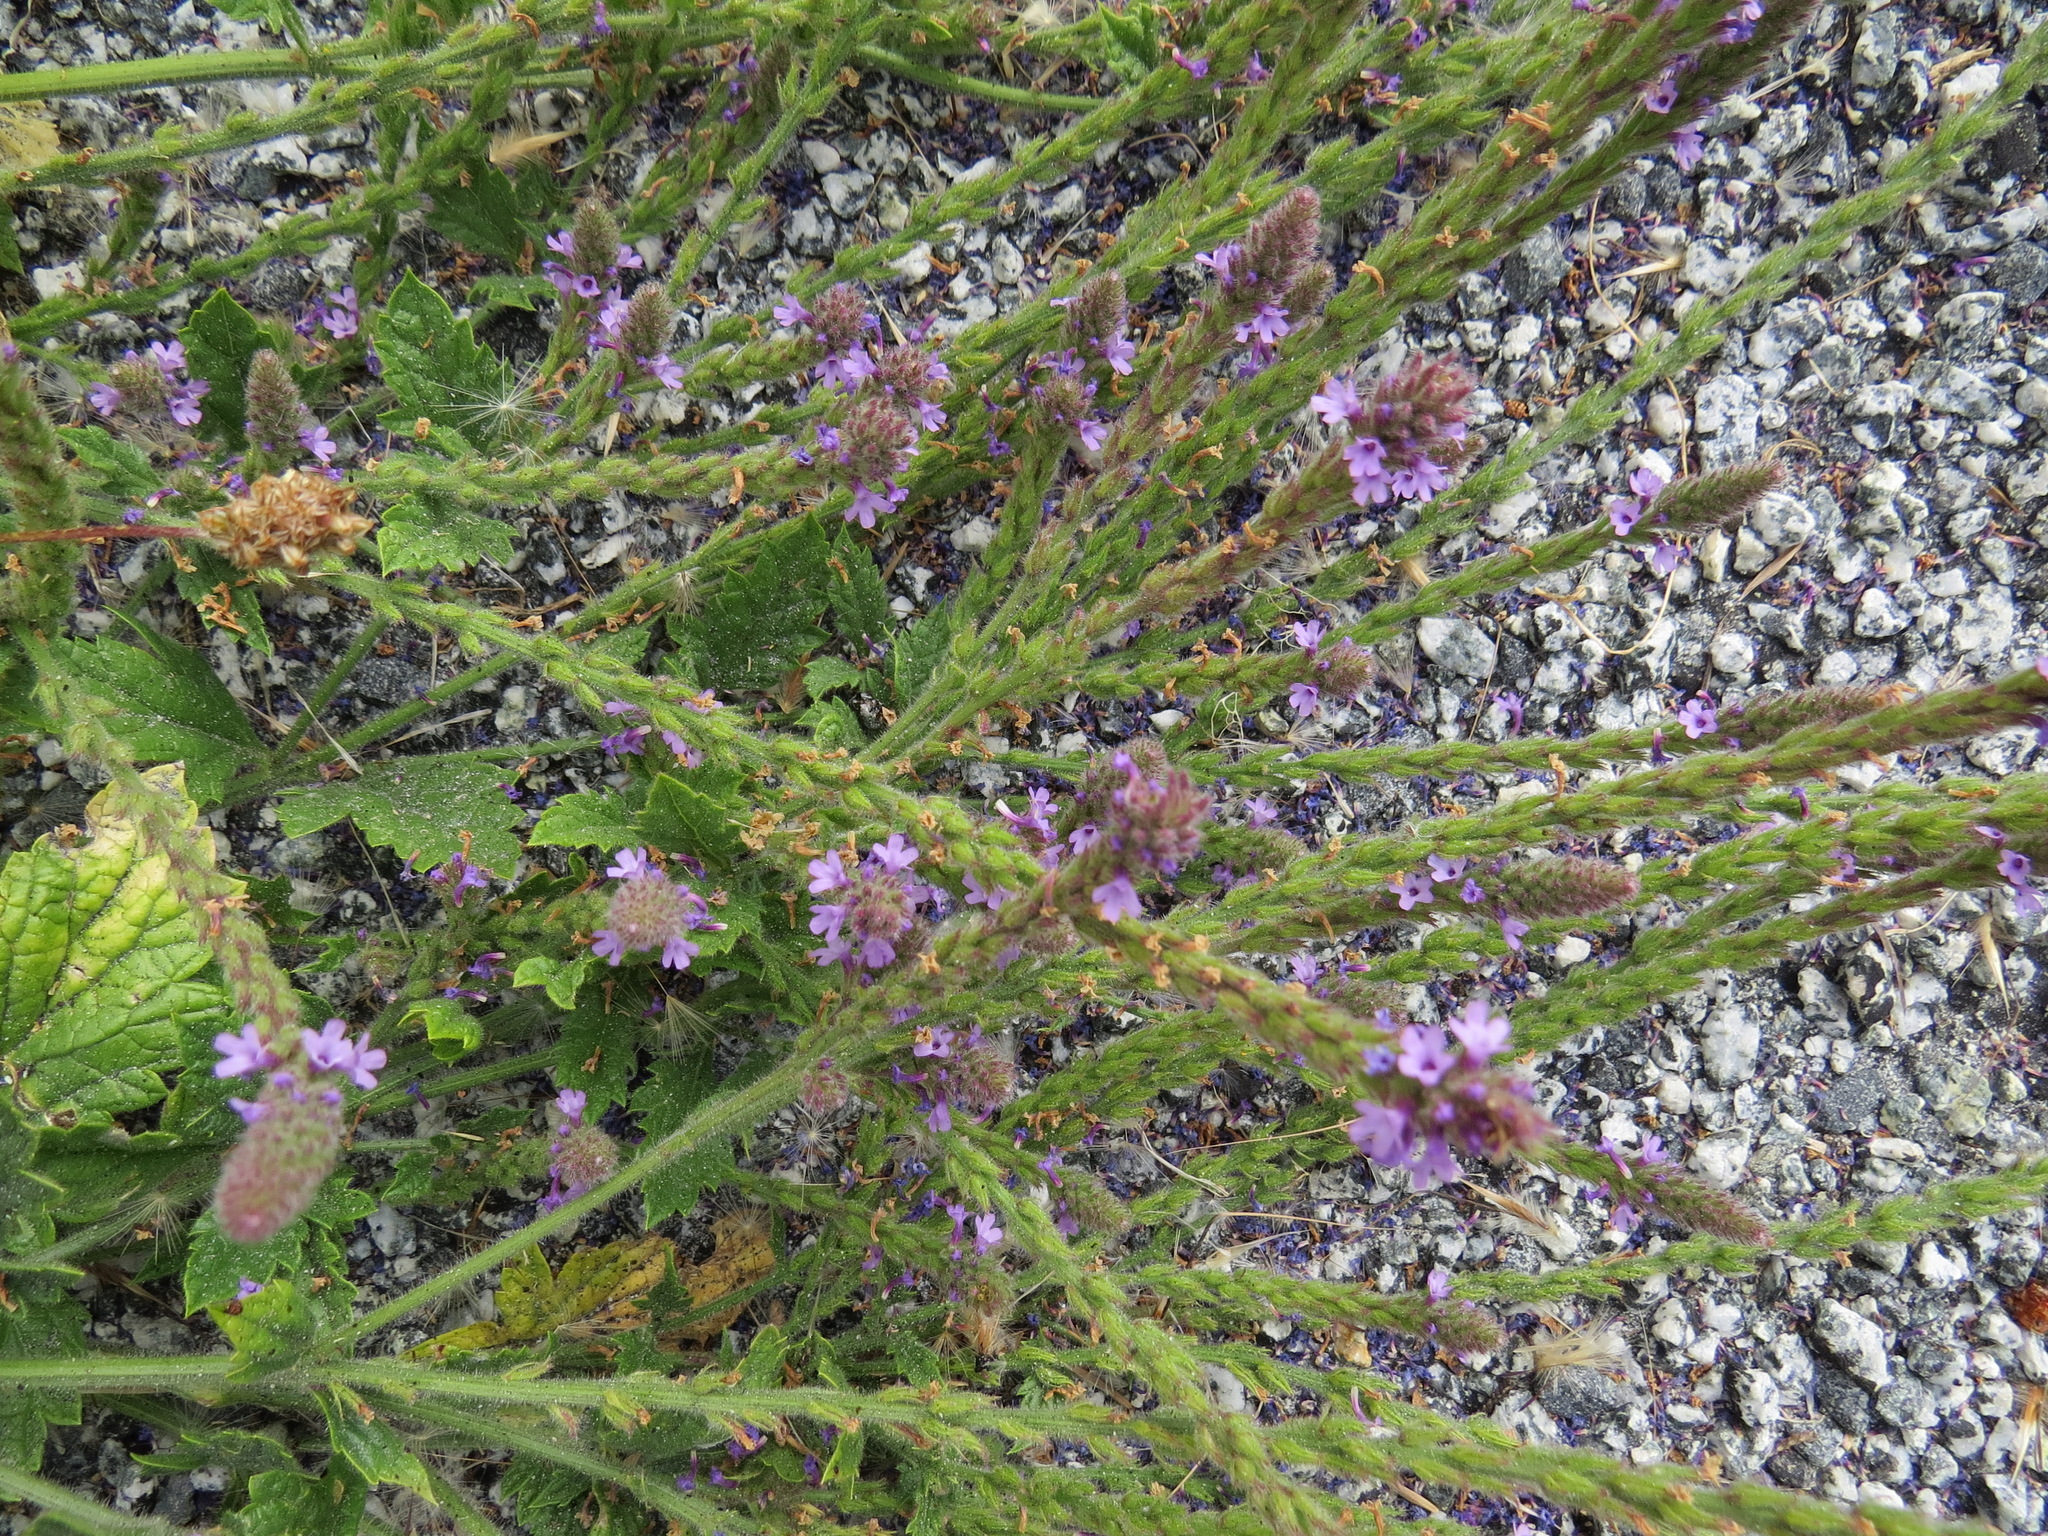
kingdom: Plantae
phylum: Tracheophyta
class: Magnoliopsida
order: Lamiales
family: Verbenaceae
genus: Verbena
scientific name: Verbena lasiostachys
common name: Vervain
